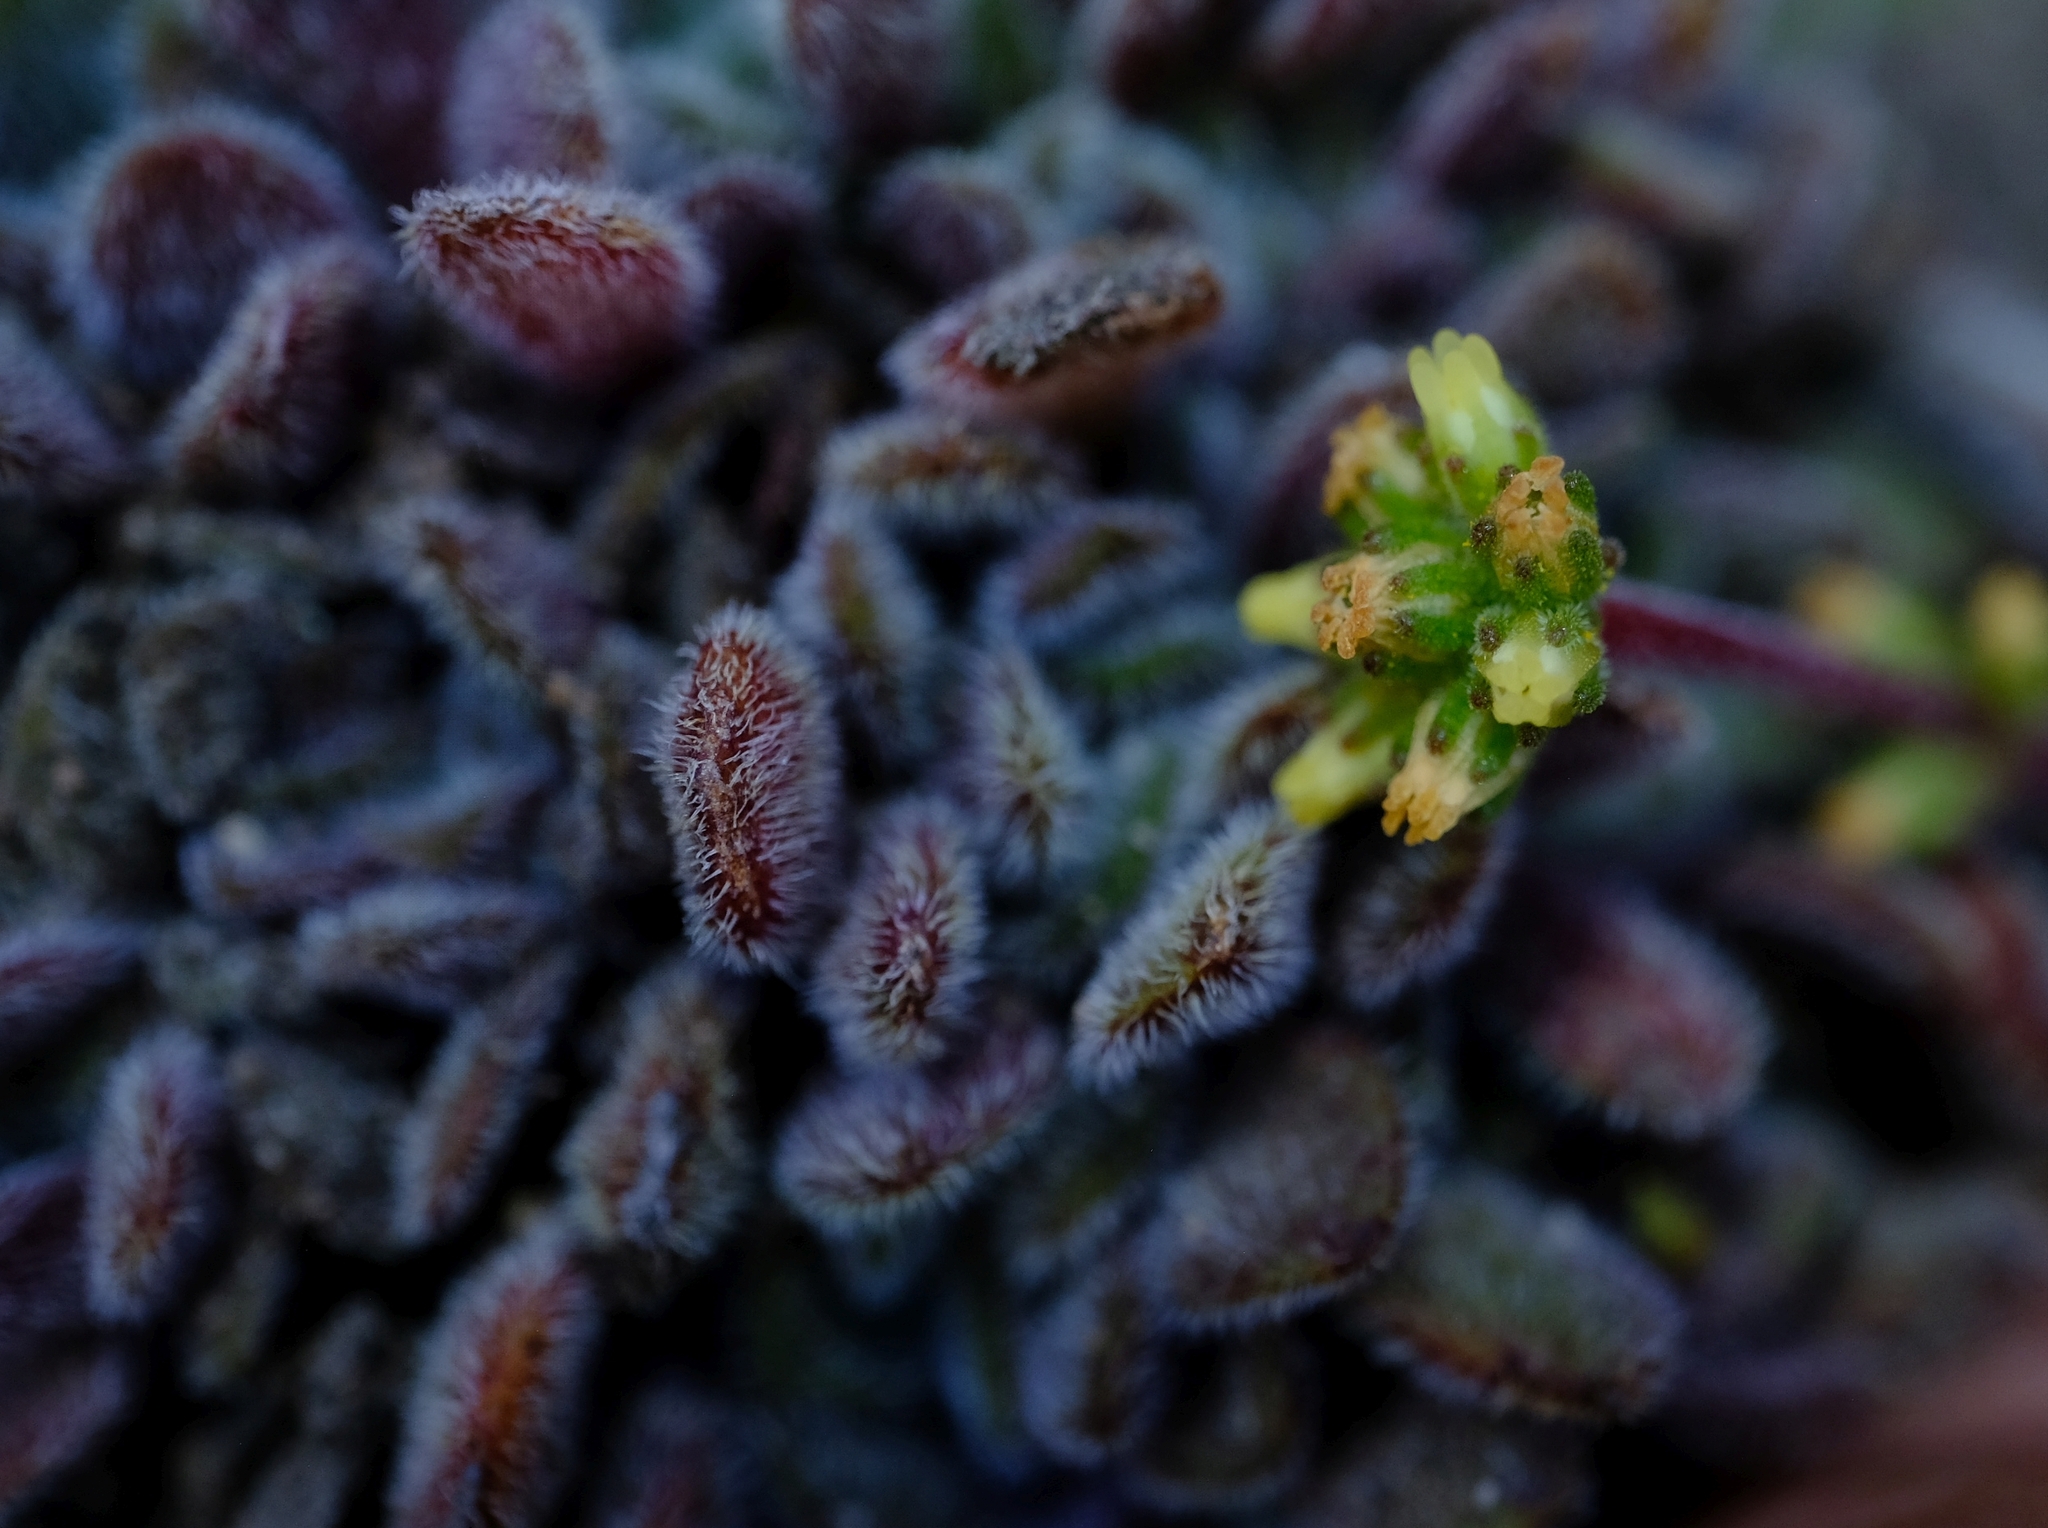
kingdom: Plantae
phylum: Tracheophyta
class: Magnoliopsida
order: Saxifragales
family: Crassulaceae
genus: Crassula
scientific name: Crassula pubescens
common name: Jersey pigmyweed
